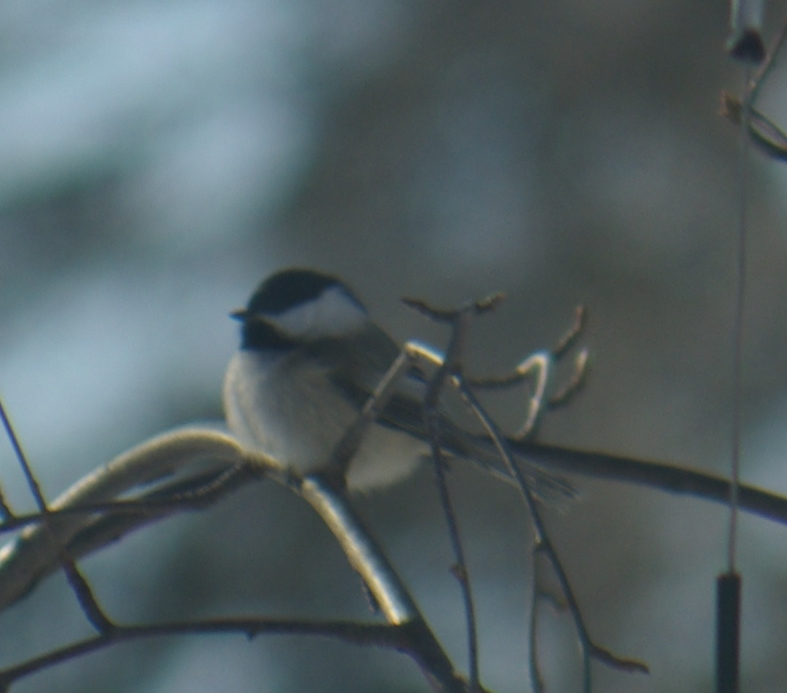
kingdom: Animalia
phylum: Chordata
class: Aves
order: Passeriformes
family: Paridae
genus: Poecile
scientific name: Poecile atricapillus
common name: Black-capped chickadee
